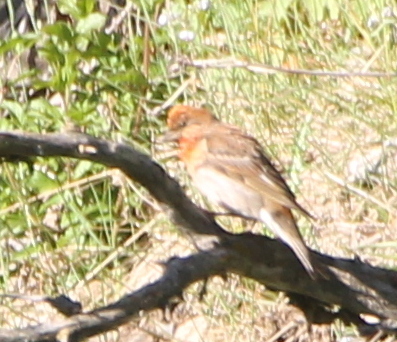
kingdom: Animalia
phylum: Chordata
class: Aves
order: Passeriformes
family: Fringillidae
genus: Carpodacus
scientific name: Carpodacus erythrinus
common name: Common rosefinch
